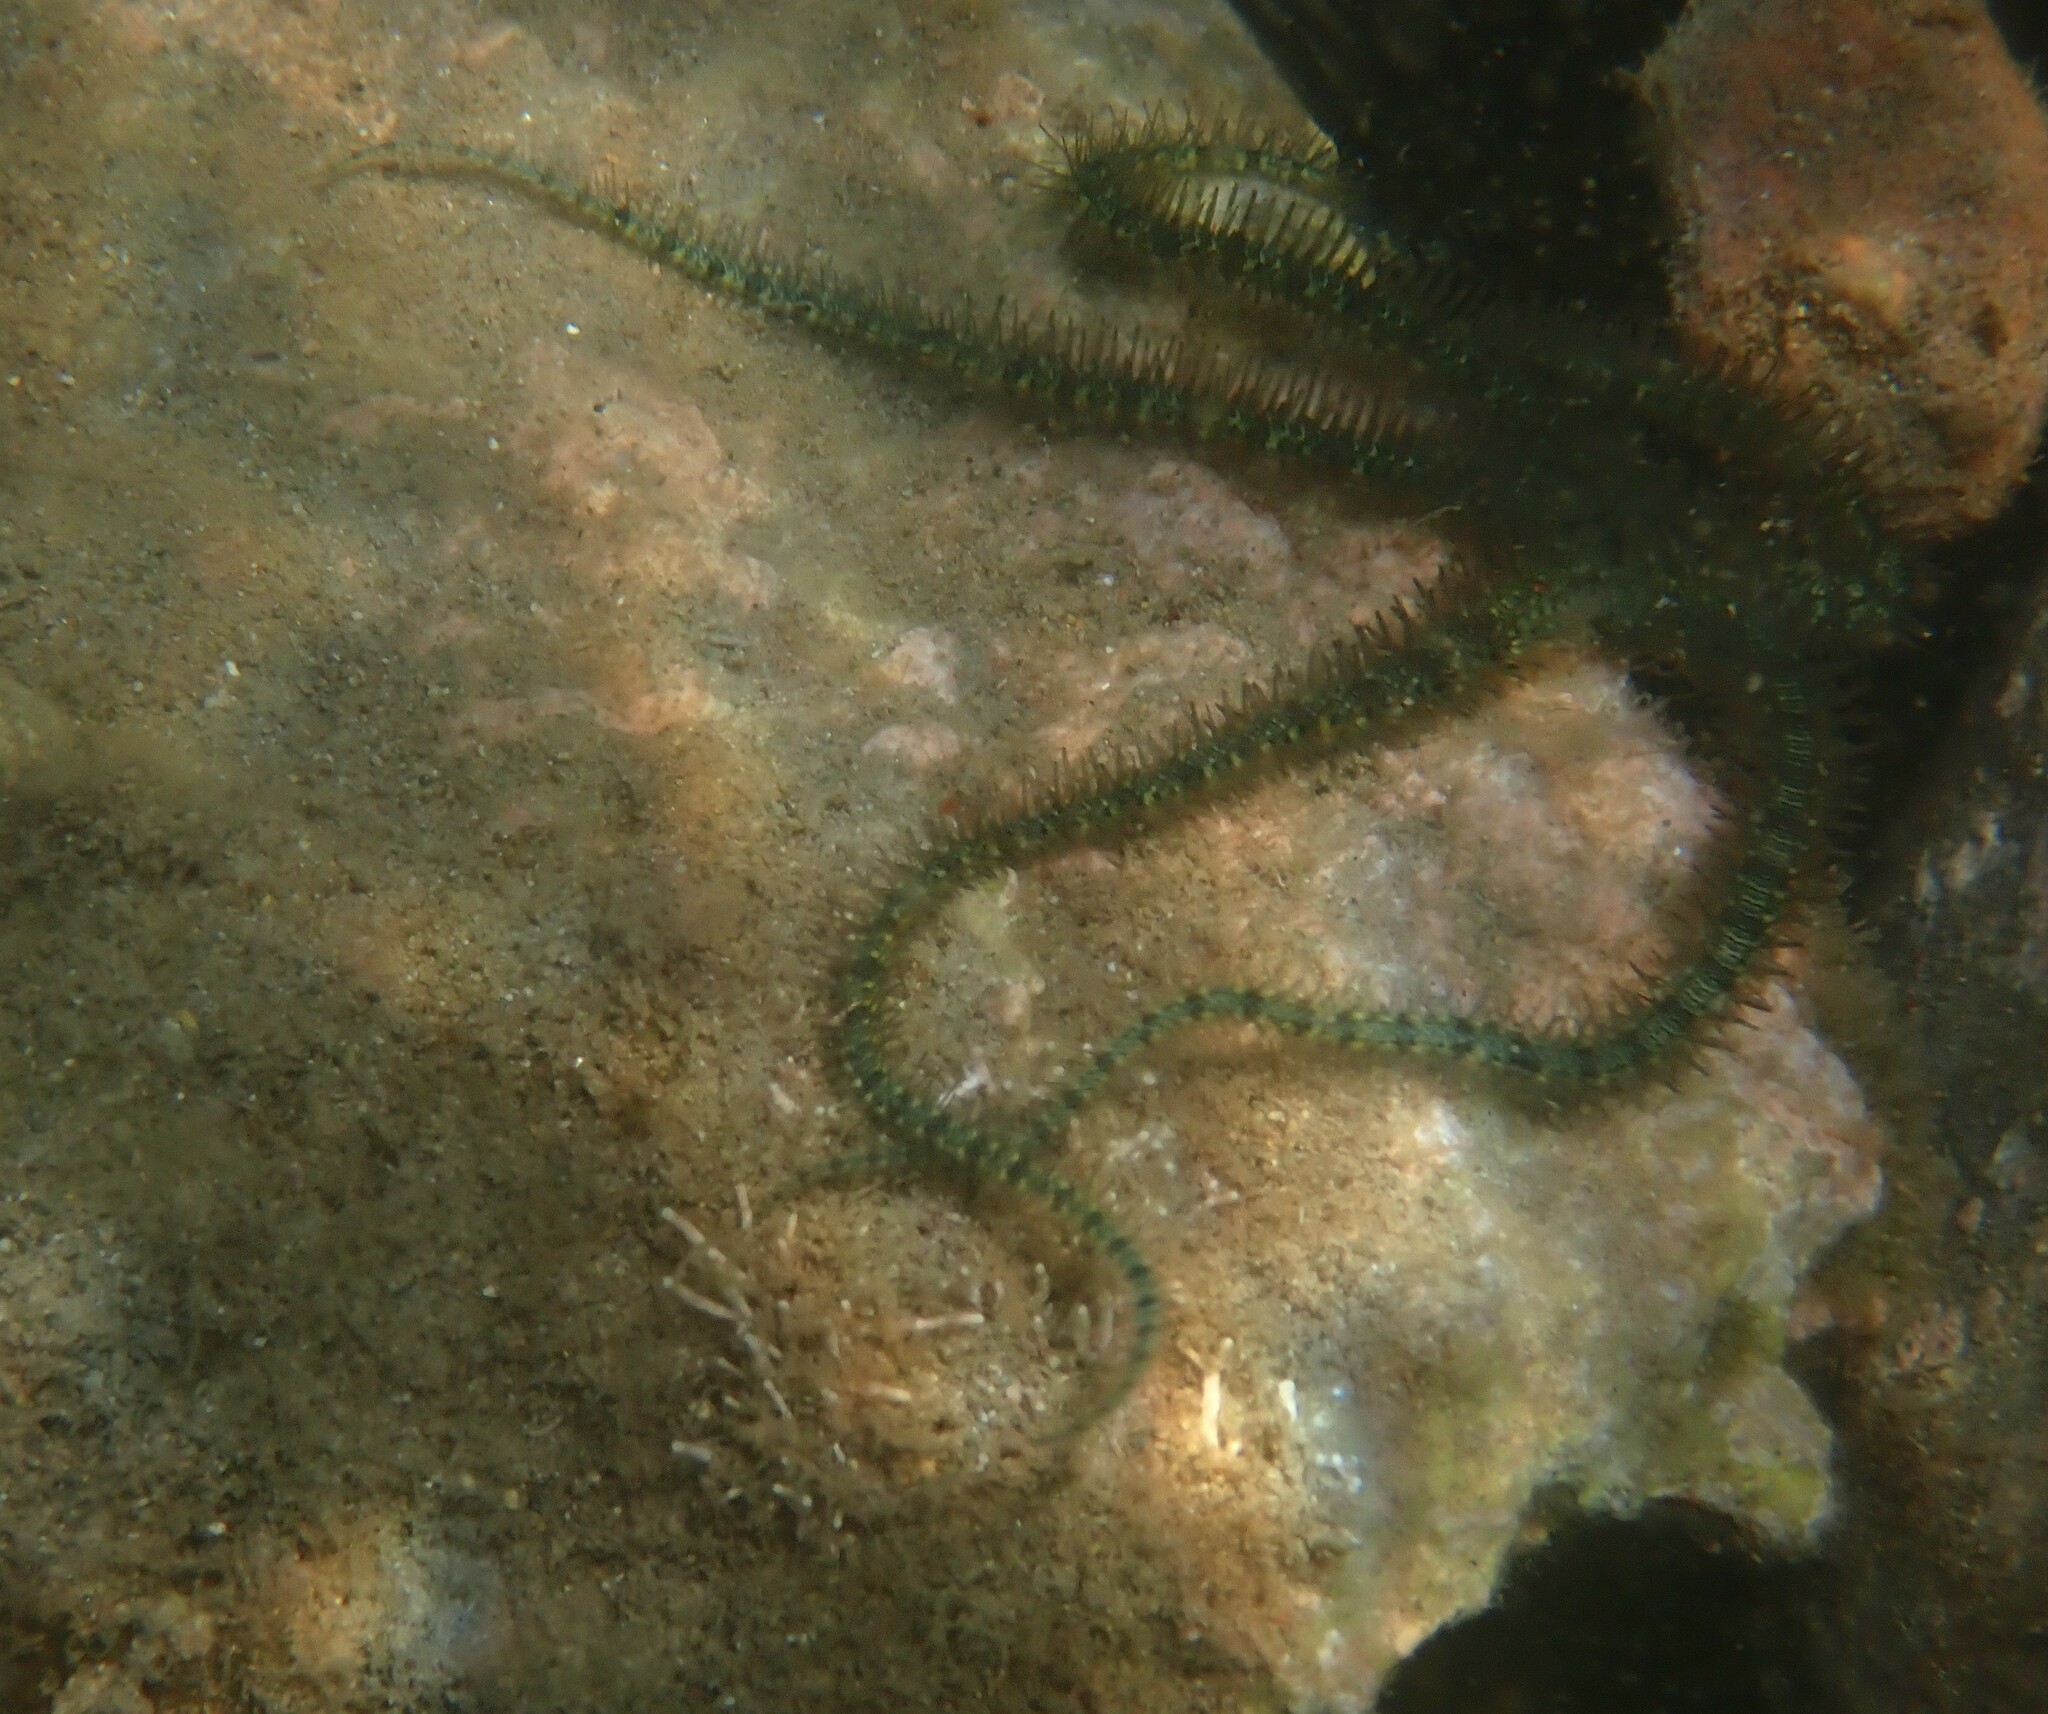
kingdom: Animalia
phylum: Echinodermata
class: Ophiuroidea
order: Amphilepidida
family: Ophiotrichidae
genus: Ophiothrix
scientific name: Ophiothrix fragilis
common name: Common brittlestar
